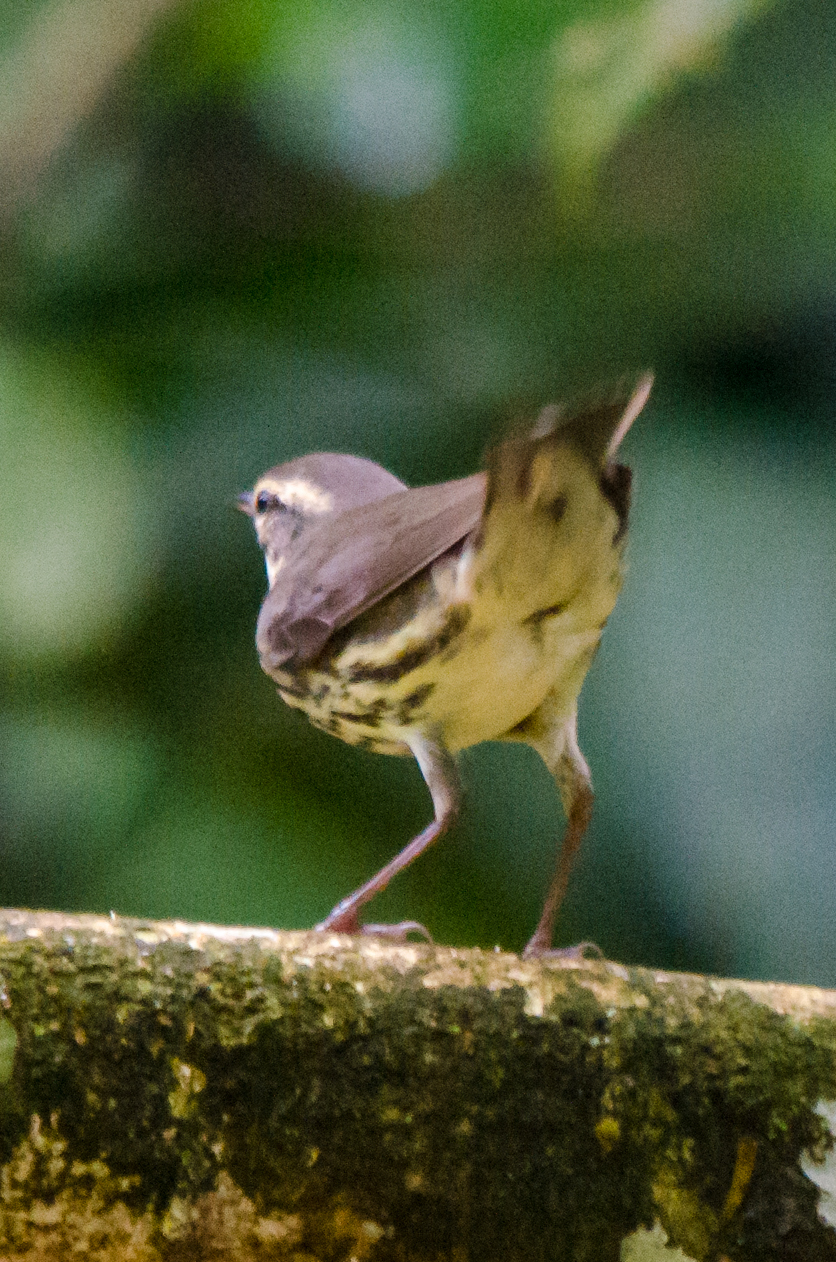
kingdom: Animalia
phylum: Chordata
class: Aves
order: Passeriformes
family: Parulidae
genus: Parkesia
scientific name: Parkesia motacilla
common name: Louisiana waterthrush
